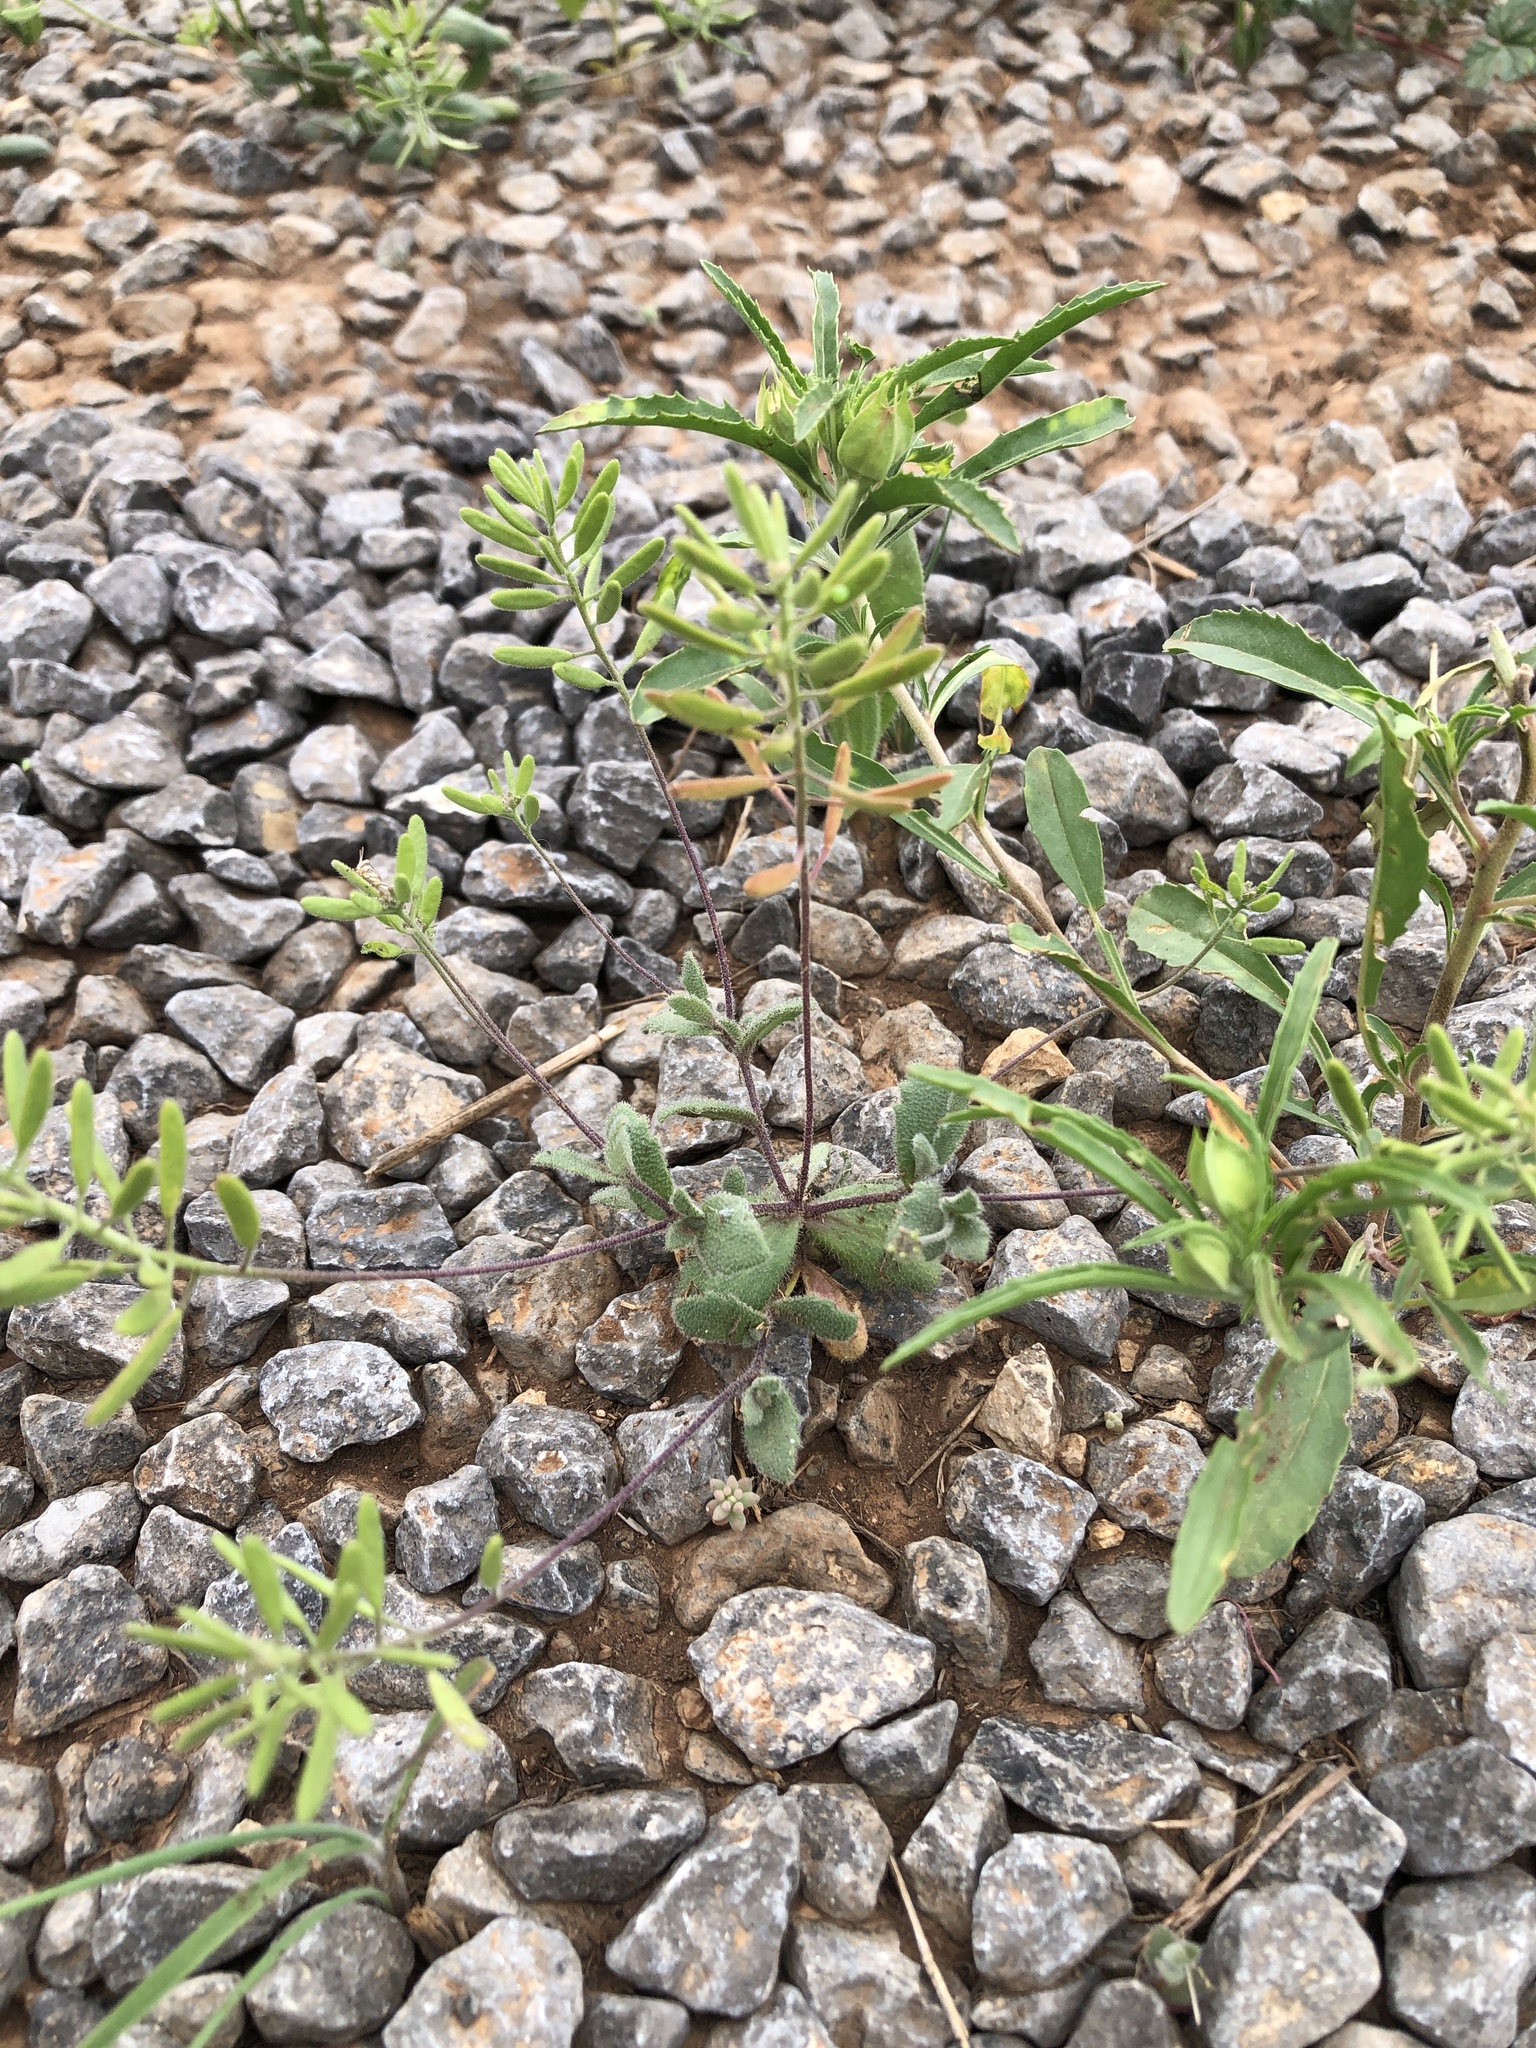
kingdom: Plantae
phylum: Tracheophyta
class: Magnoliopsida
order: Brassicales
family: Brassicaceae
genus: Tomostima
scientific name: Tomostima cuneifolia
